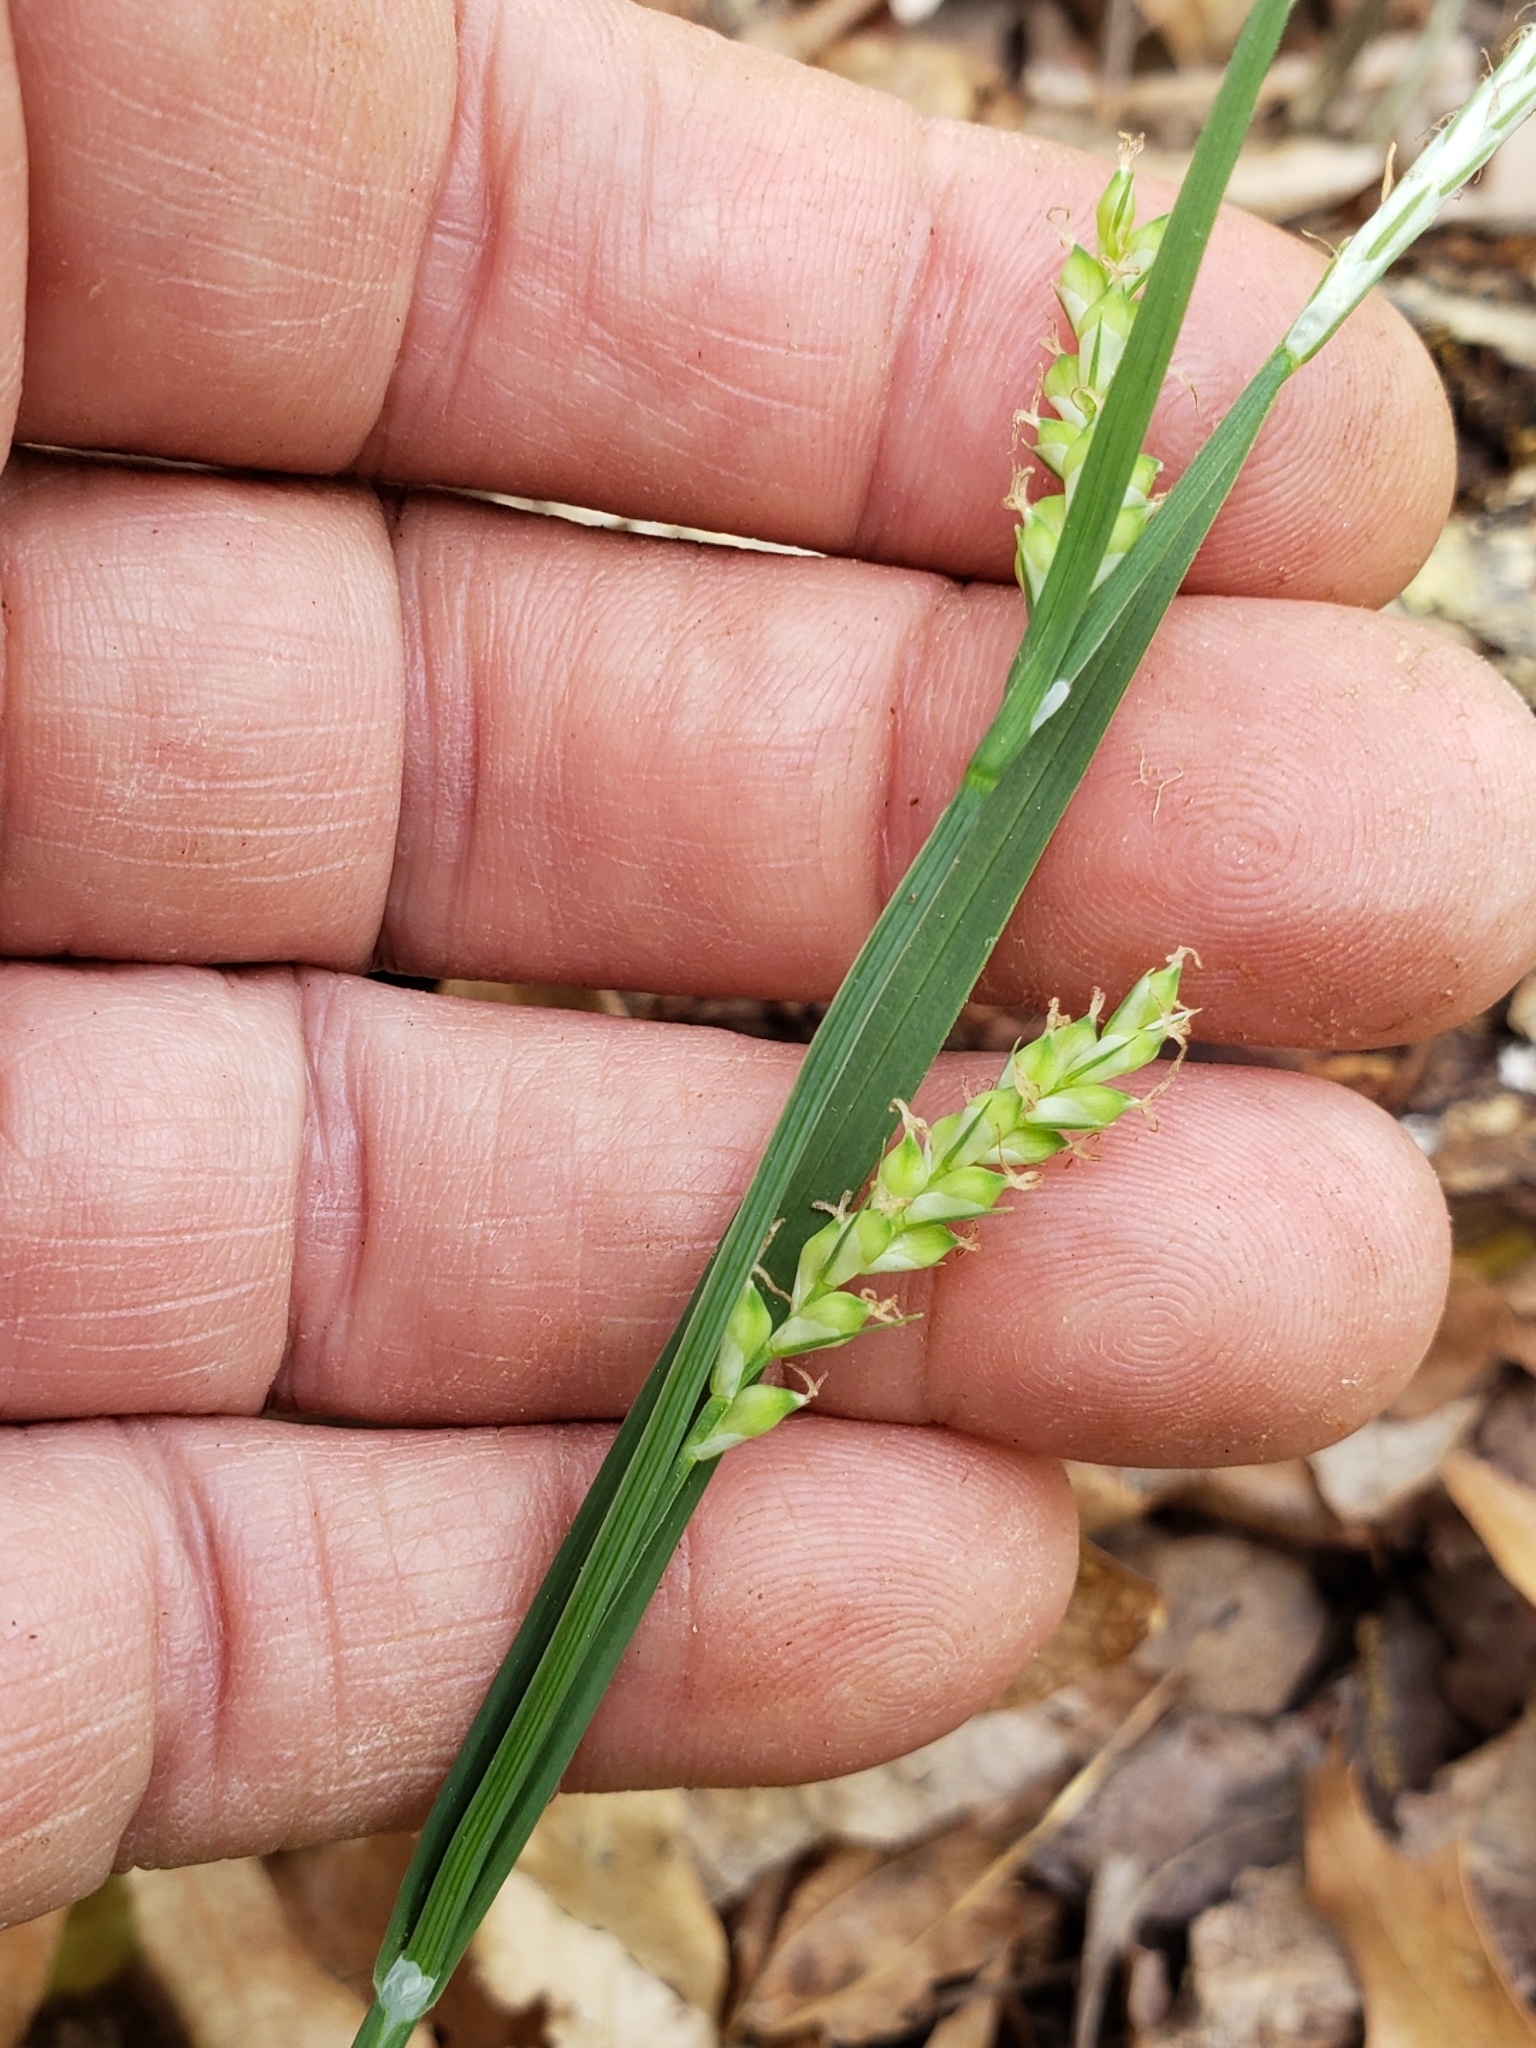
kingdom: Plantae
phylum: Tracheophyta
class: Liliopsida
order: Poales
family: Cyperaceae
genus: Carex
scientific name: Carex blanda
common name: Bland sedge
